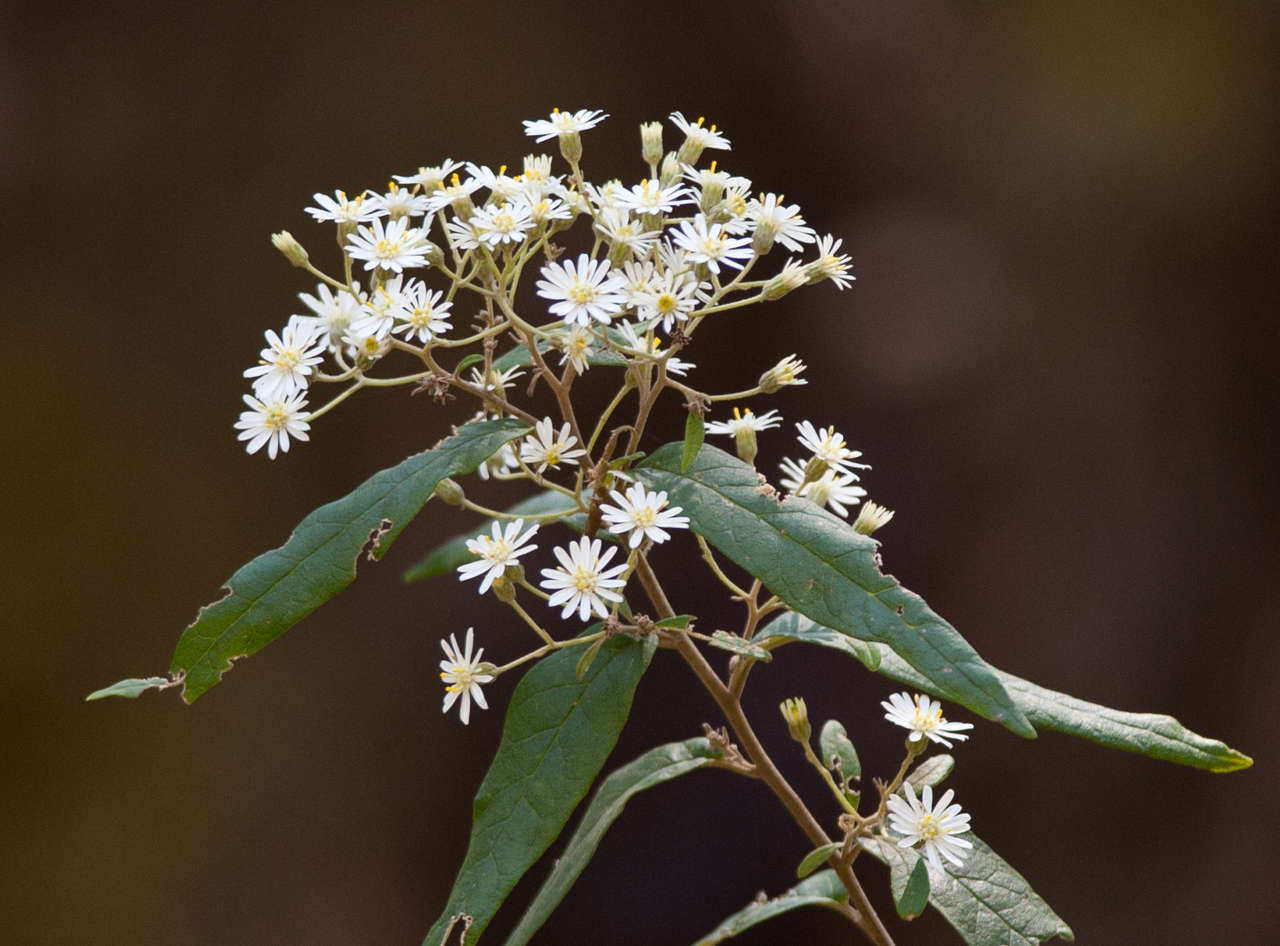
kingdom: Plantae
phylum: Tracheophyta
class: Magnoliopsida
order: Asterales
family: Asteraceae
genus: Olearia
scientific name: Olearia lirata
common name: Dusty daisybush
